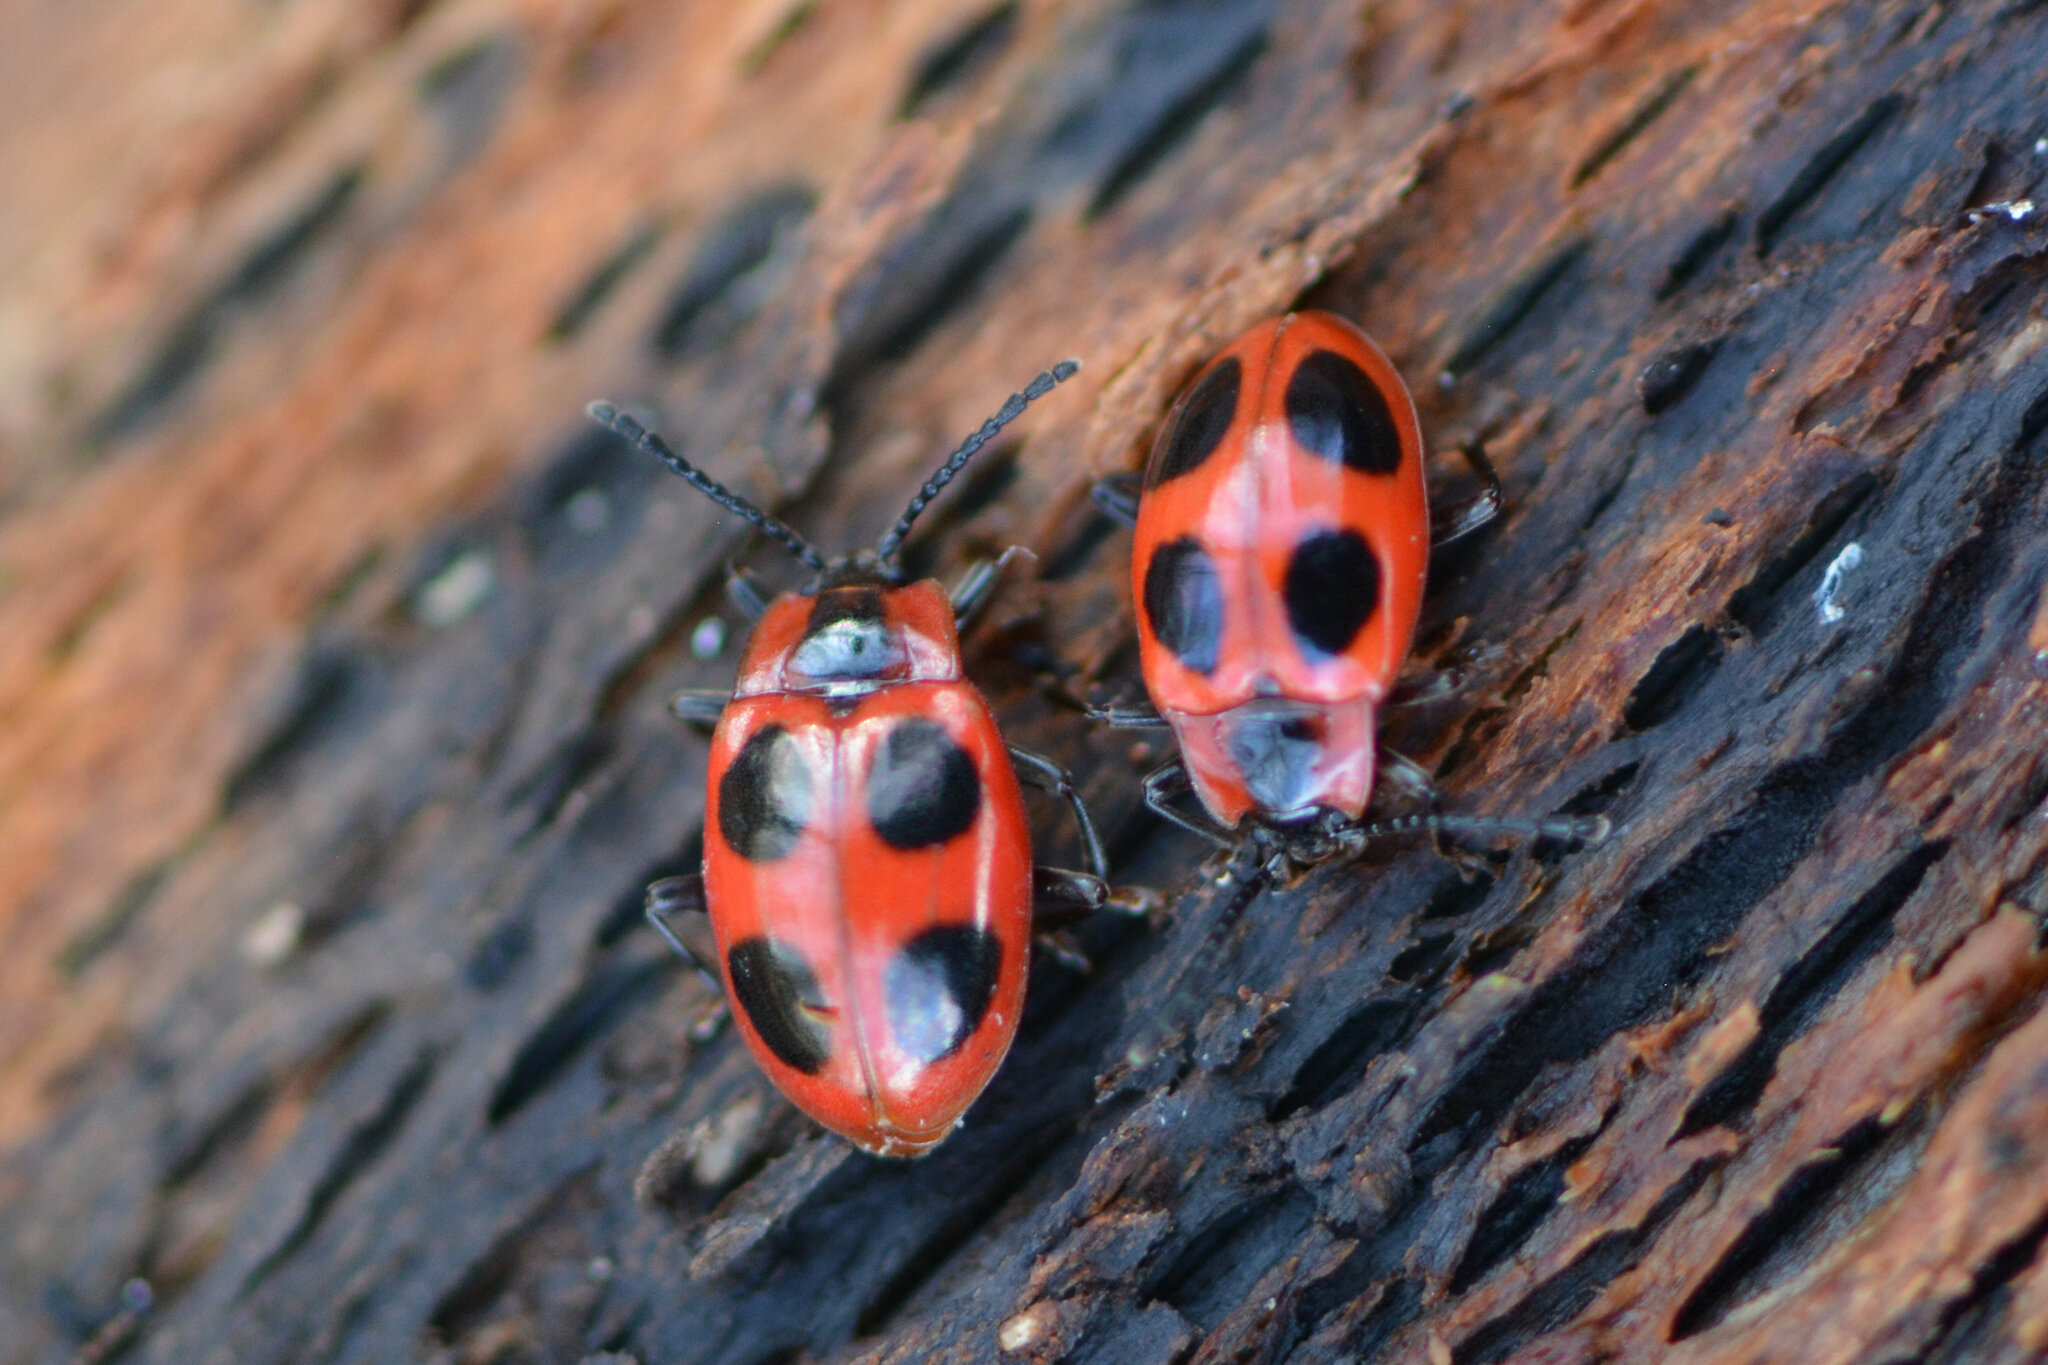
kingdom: Animalia
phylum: Arthropoda
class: Insecta
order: Coleoptera
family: Endomychidae
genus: Endomychus
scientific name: Endomychus coccineus
